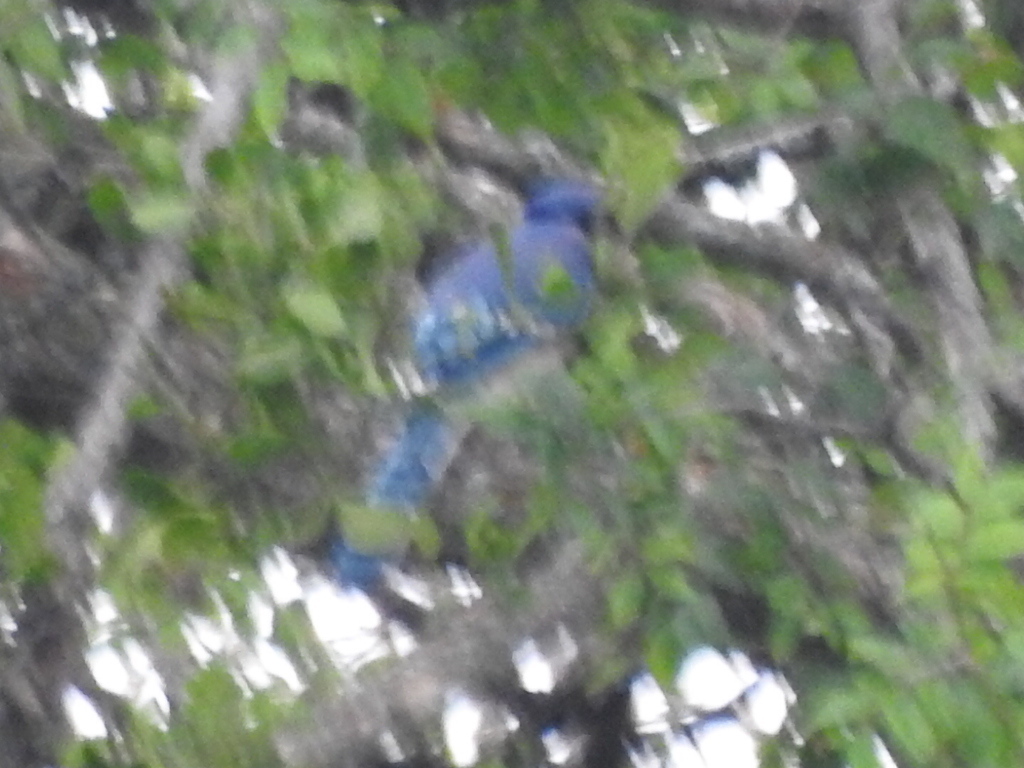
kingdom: Animalia
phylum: Chordata
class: Aves
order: Passeriformes
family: Corvidae
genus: Cyanocitta
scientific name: Cyanocitta cristata
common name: Blue jay
